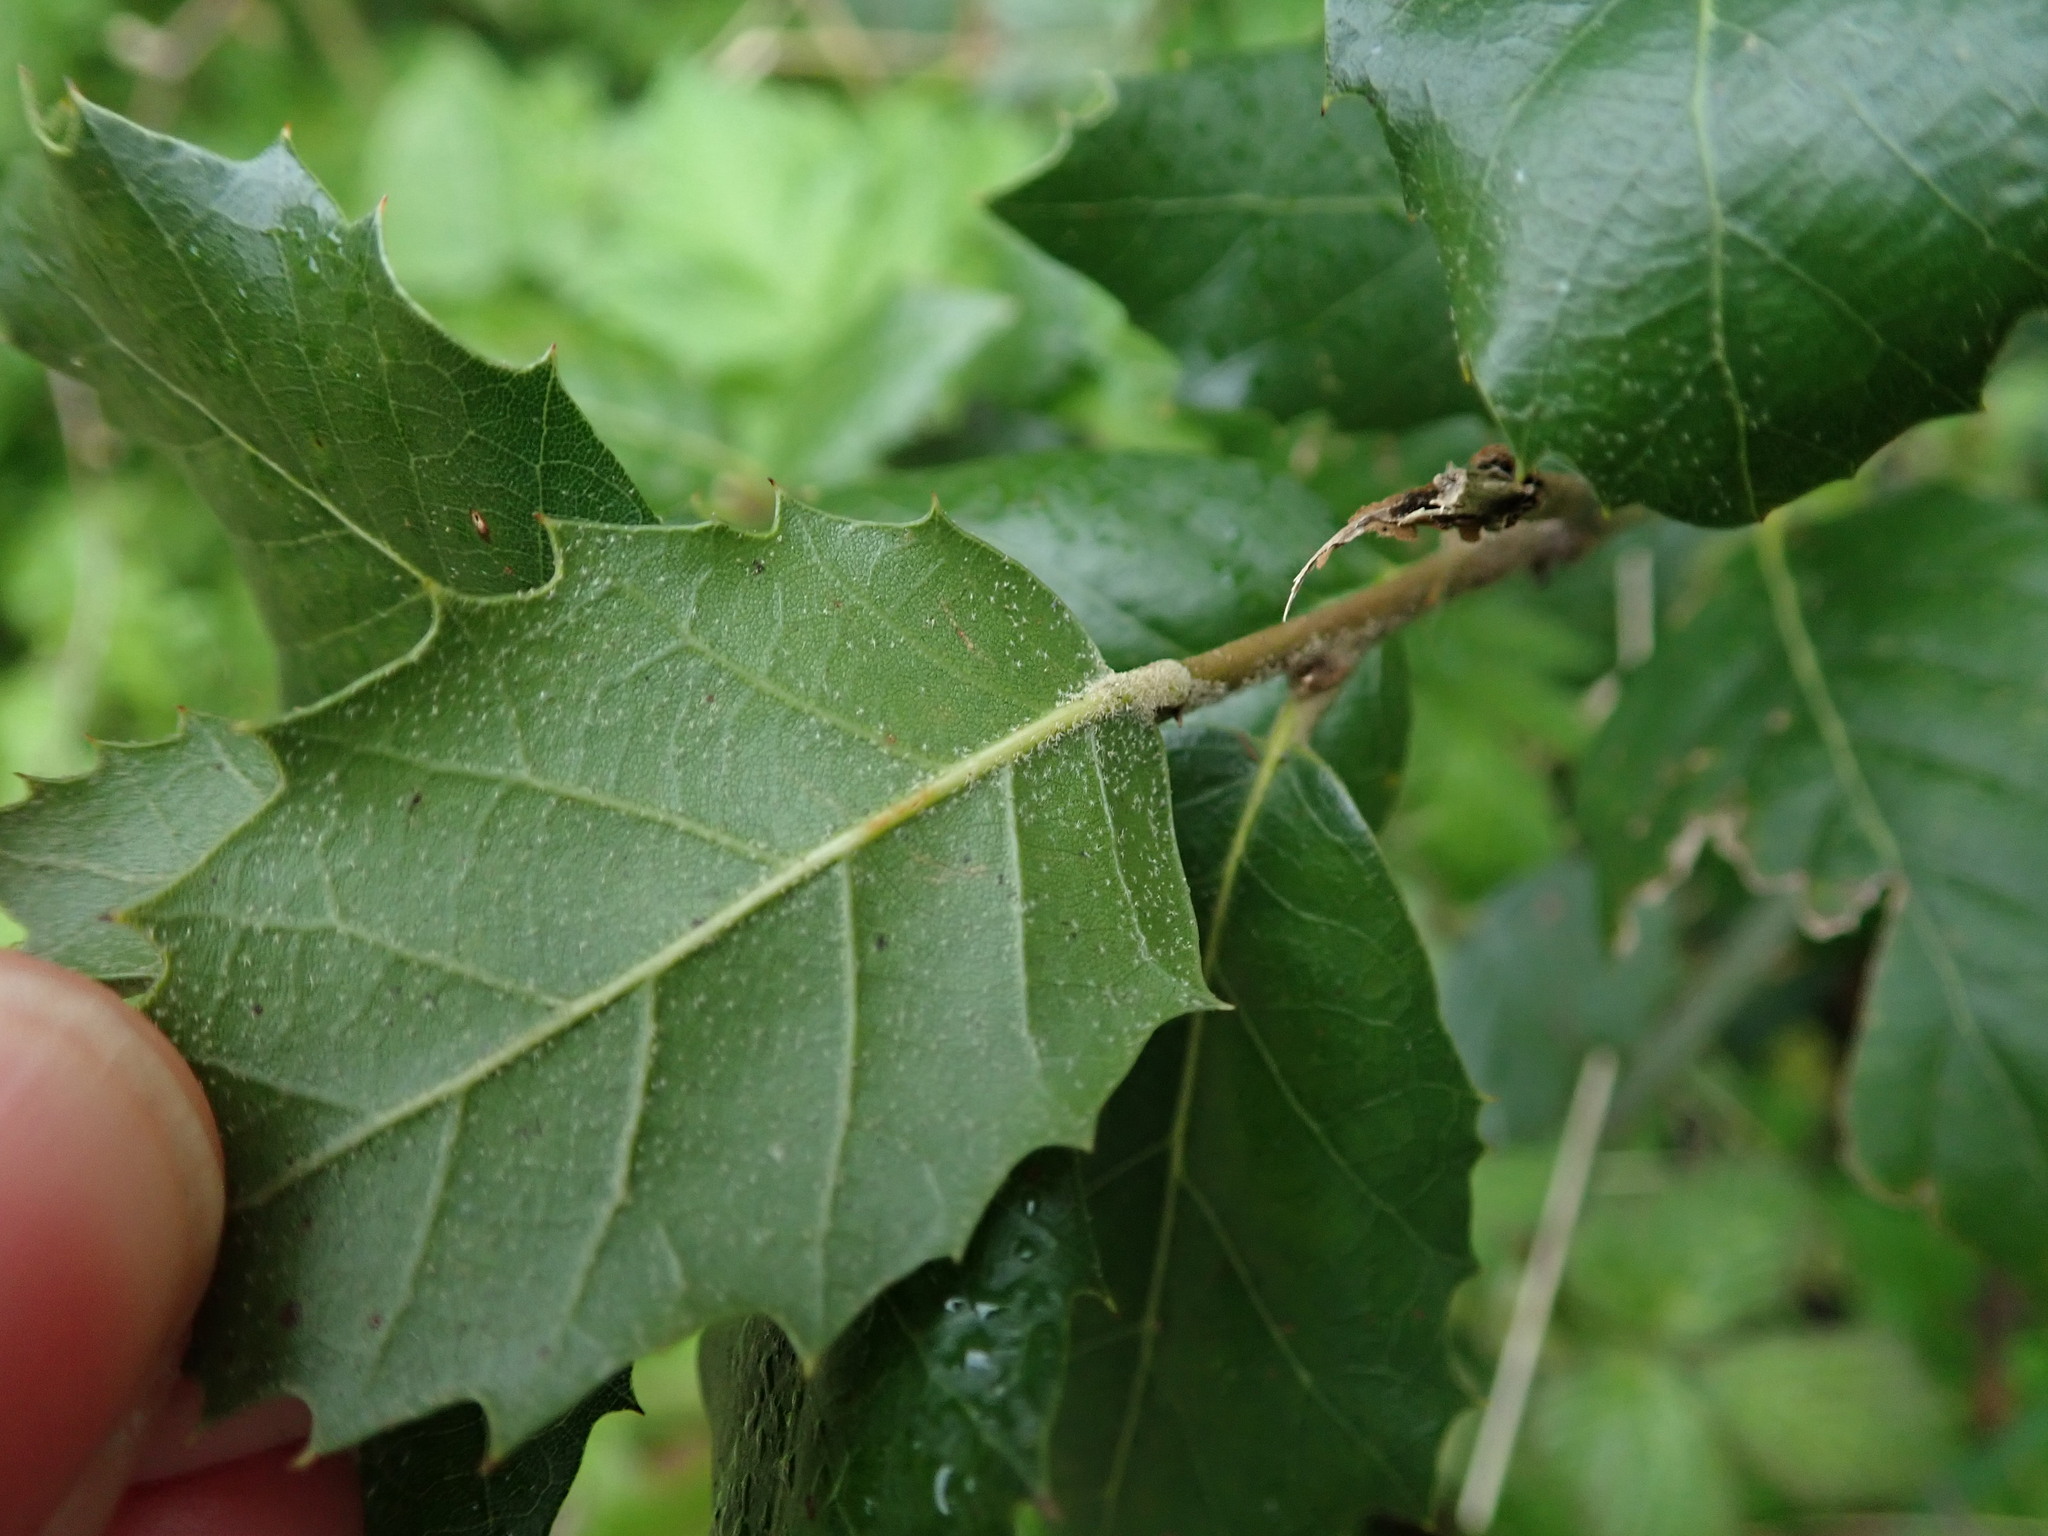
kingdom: Plantae
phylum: Tracheophyta
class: Magnoliopsida
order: Fagales
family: Fagaceae
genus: Quercus
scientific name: Quercus ilex
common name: Evergreen oak
